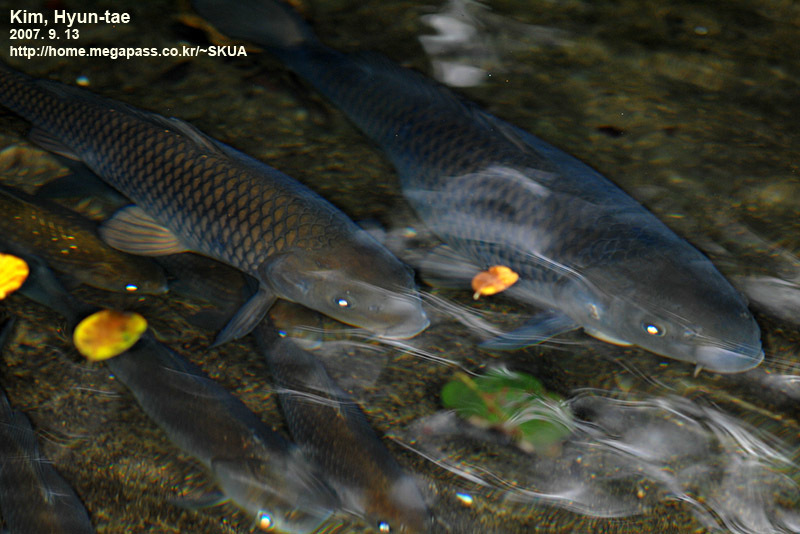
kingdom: Animalia
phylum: Chordata
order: Cypriniformes
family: Cyprinidae
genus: Cyprinus
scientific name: Cyprinus rubrofuscus
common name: Koi
